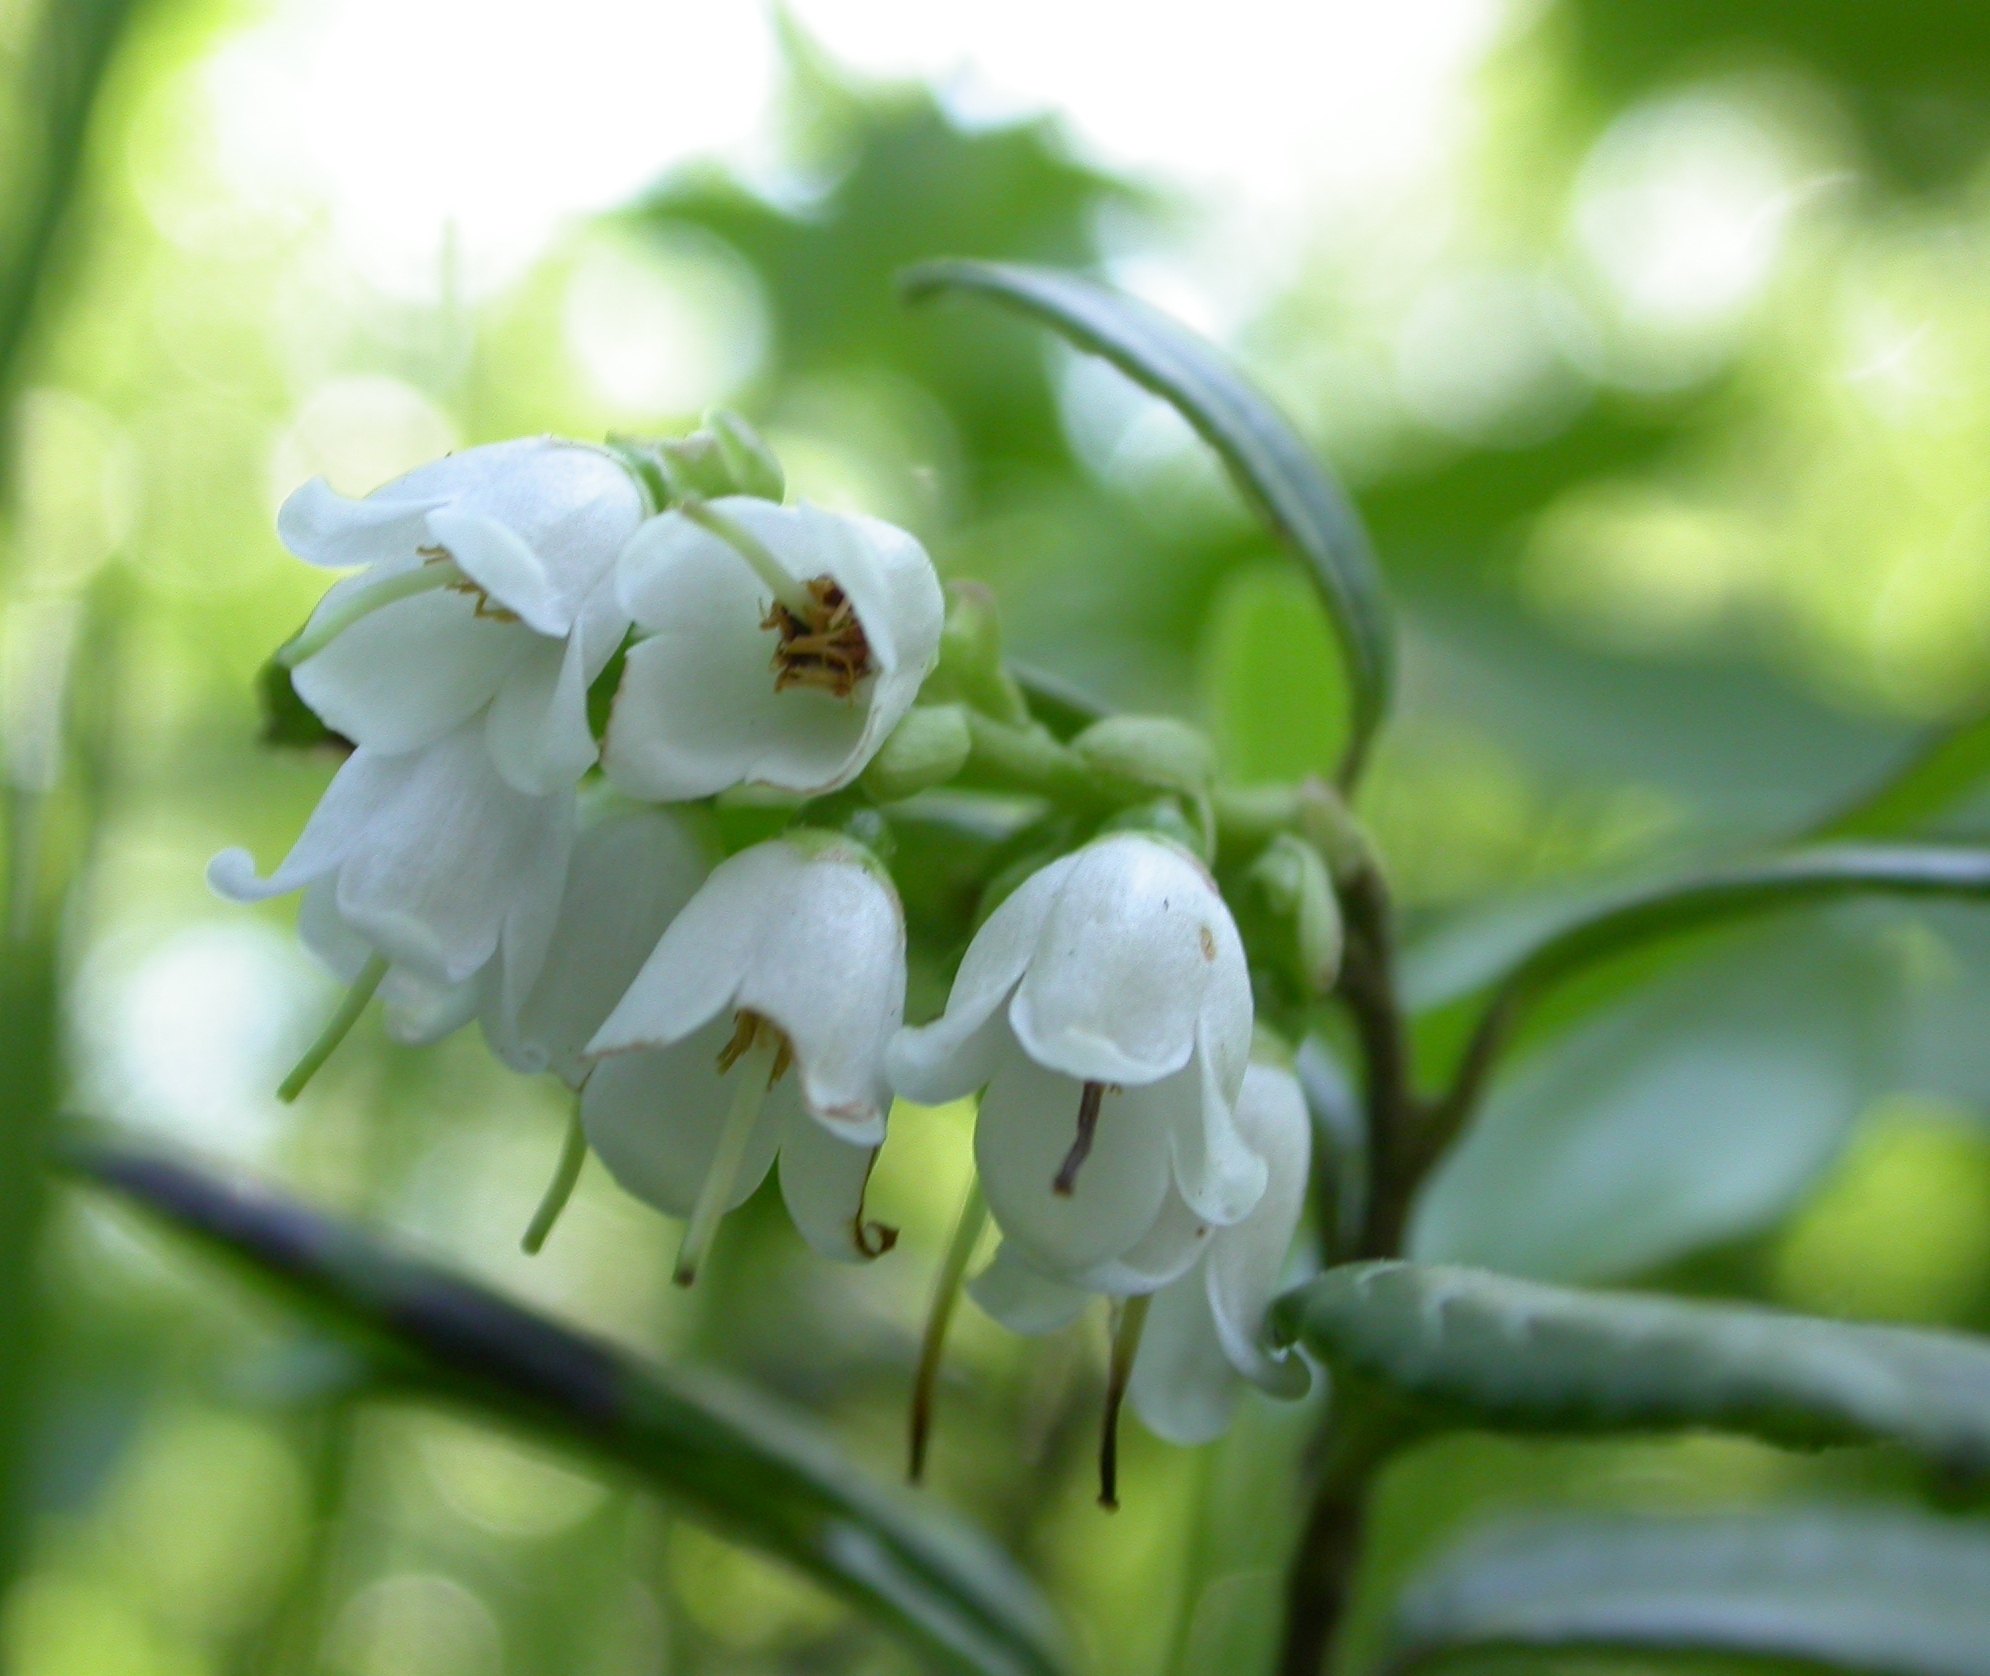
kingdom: Plantae
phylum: Tracheophyta
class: Magnoliopsida
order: Ericales
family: Ericaceae
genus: Vaccinium
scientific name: Vaccinium vitis-idaea
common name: Cowberry
